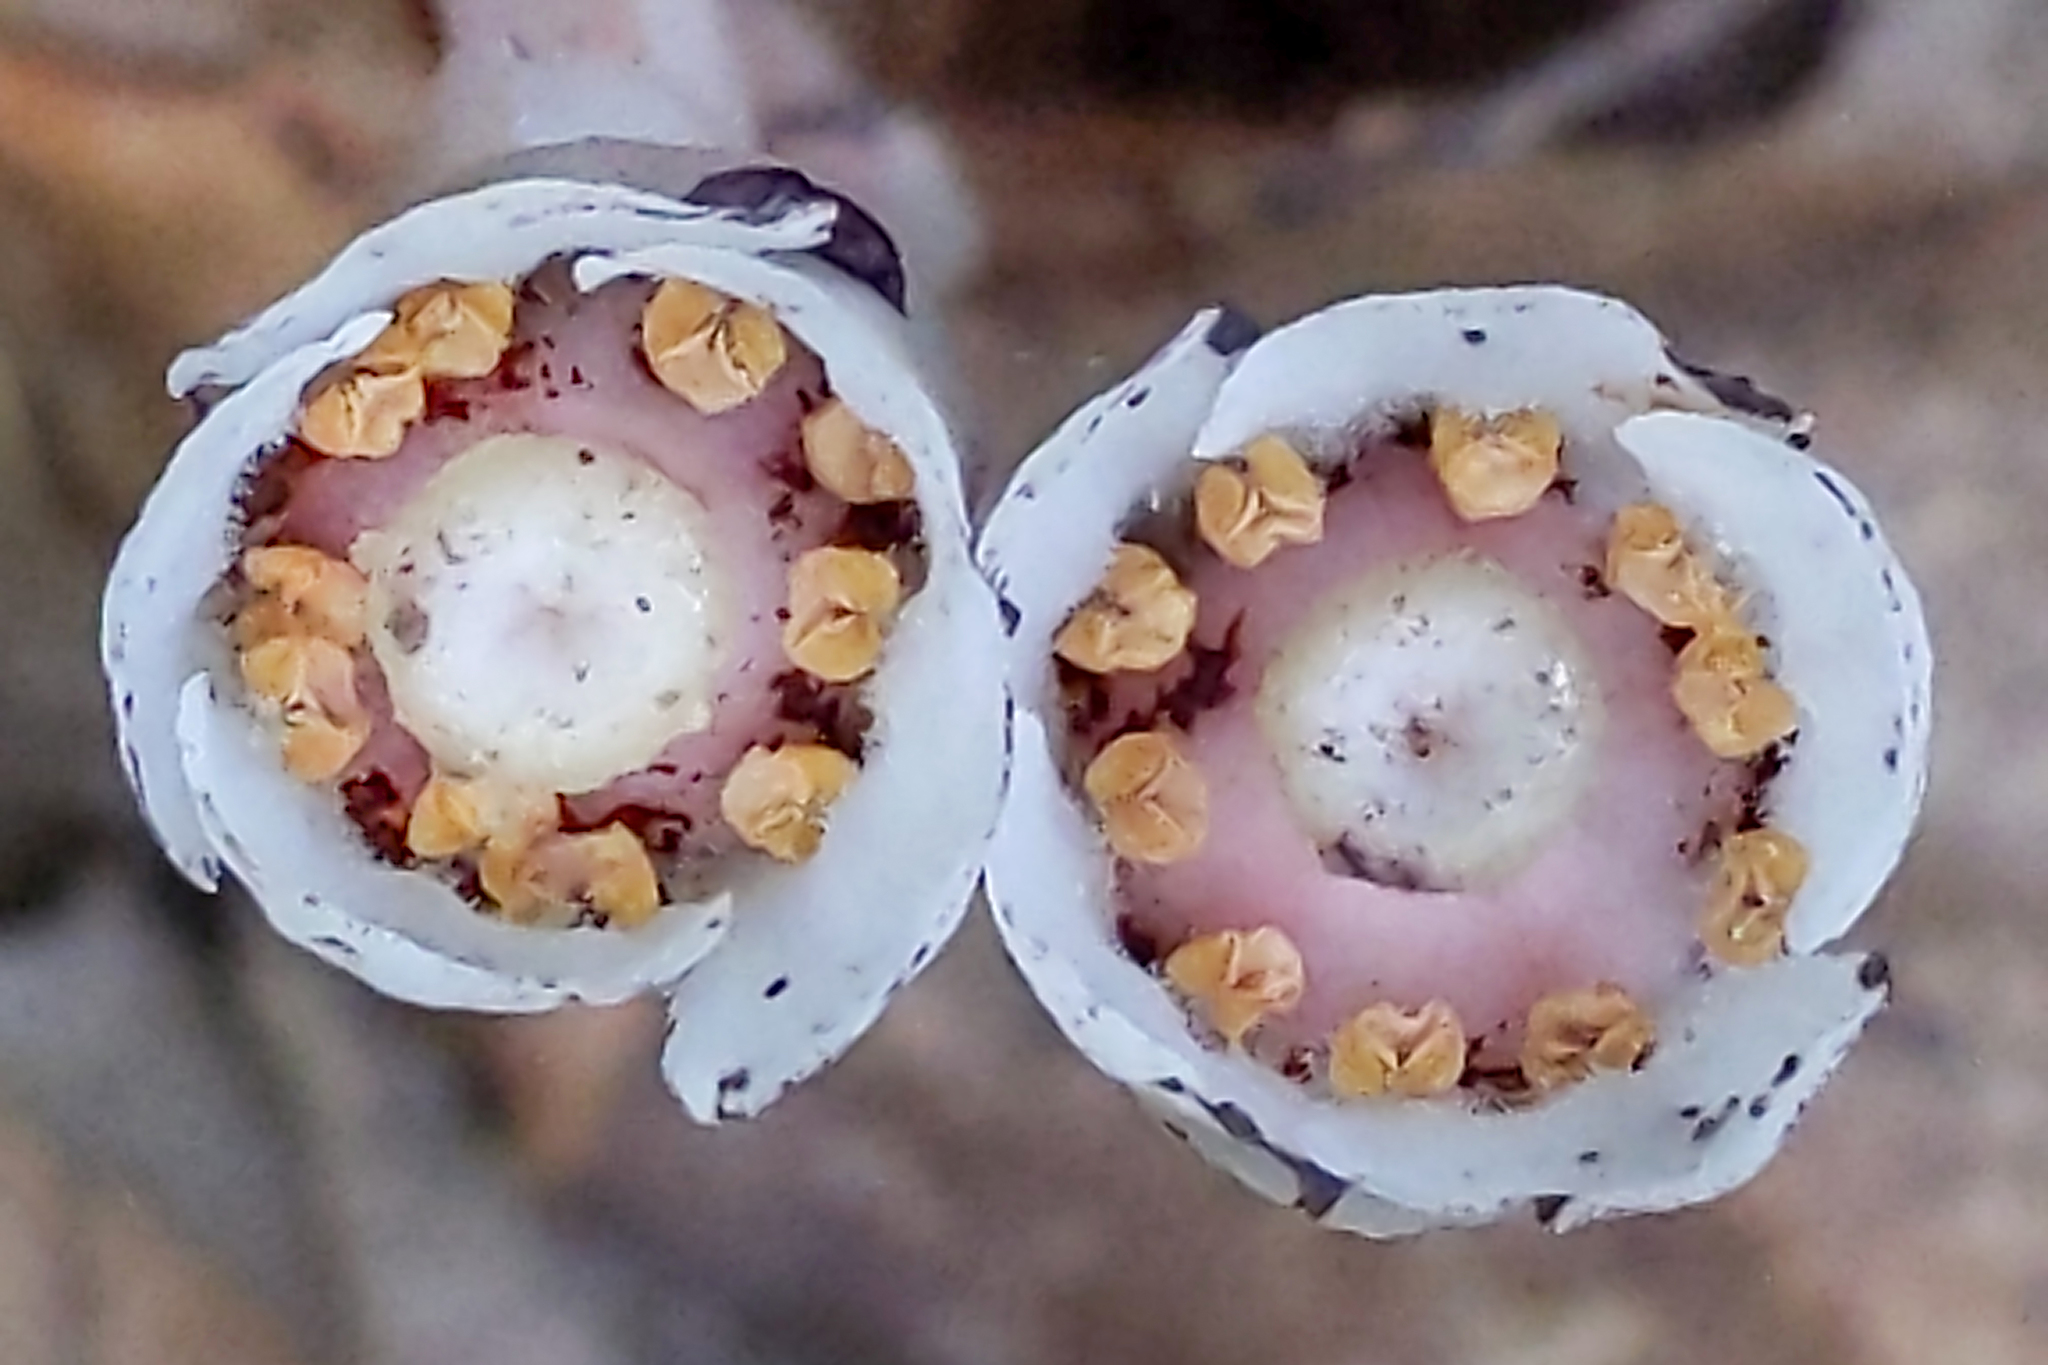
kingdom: Plantae
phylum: Tracheophyta
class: Magnoliopsida
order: Ericales
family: Ericaceae
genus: Monotropa
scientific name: Monotropa uniflora
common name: Convulsion root
